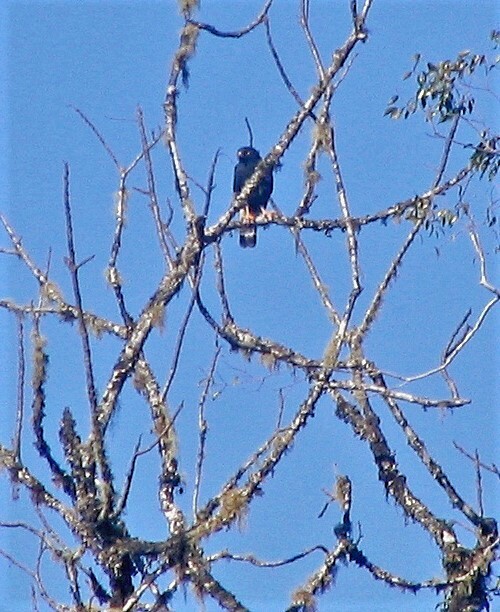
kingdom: Animalia
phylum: Chordata
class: Aves
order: Accipitriformes
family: Accipitridae
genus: Percnohierax
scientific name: Percnohierax leucorrhous
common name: White-rumped hawk
